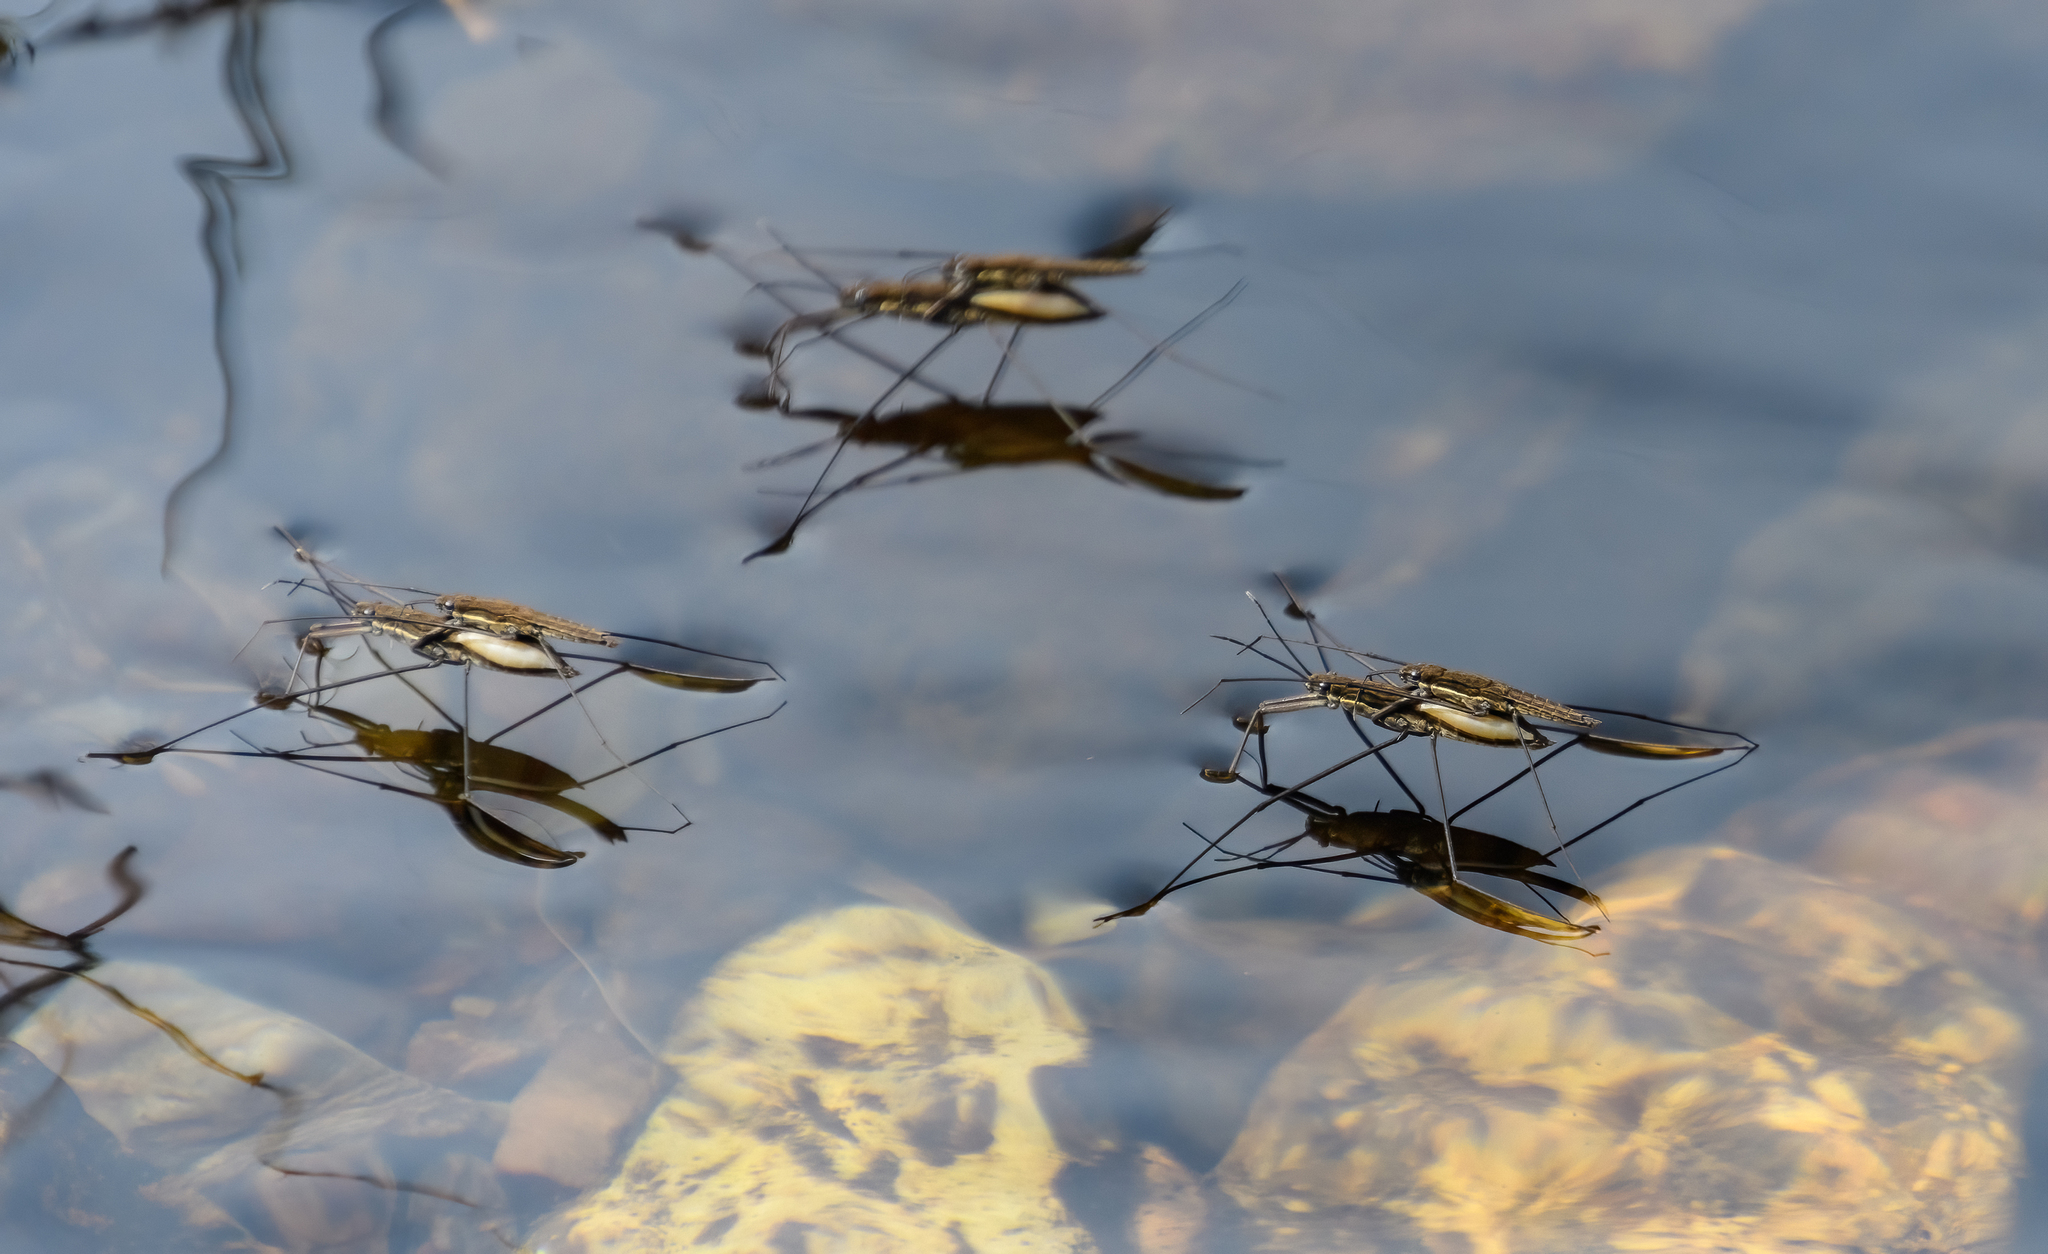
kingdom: Animalia
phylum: Arthropoda
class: Insecta
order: Hemiptera
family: Gerridae
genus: Aquarius
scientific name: Aquarius najas
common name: River skater
